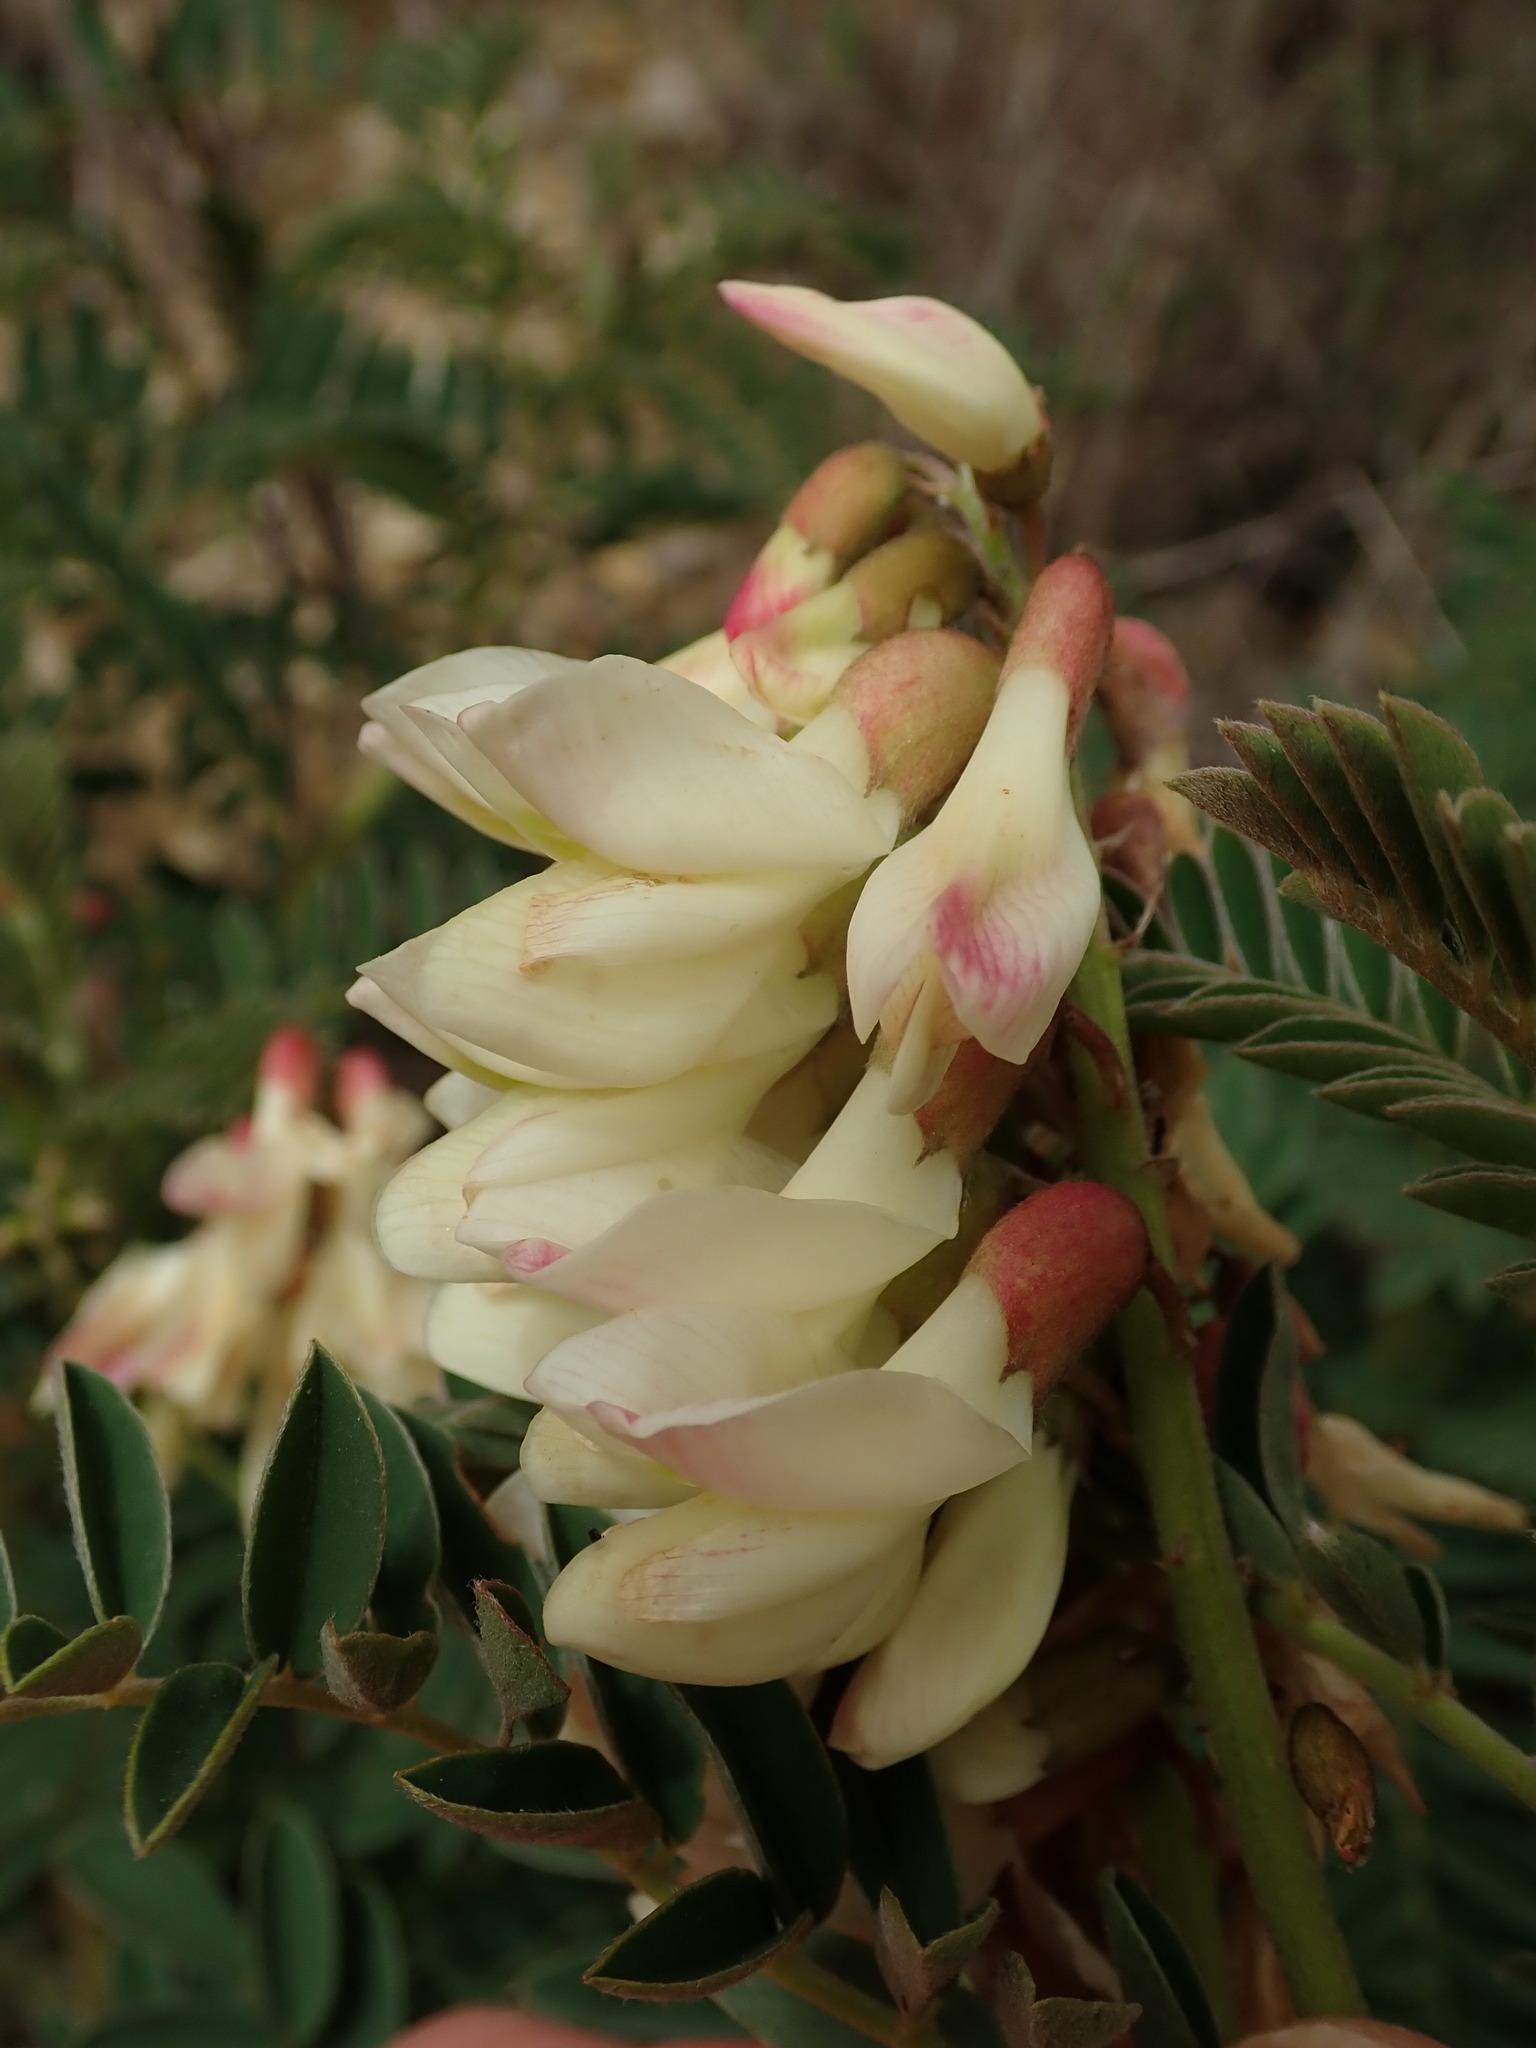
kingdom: Plantae
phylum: Tracheophyta
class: Magnoliopsida
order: Fabales
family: Fabaceae
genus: Erophaca
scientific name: Erophaca baetica
